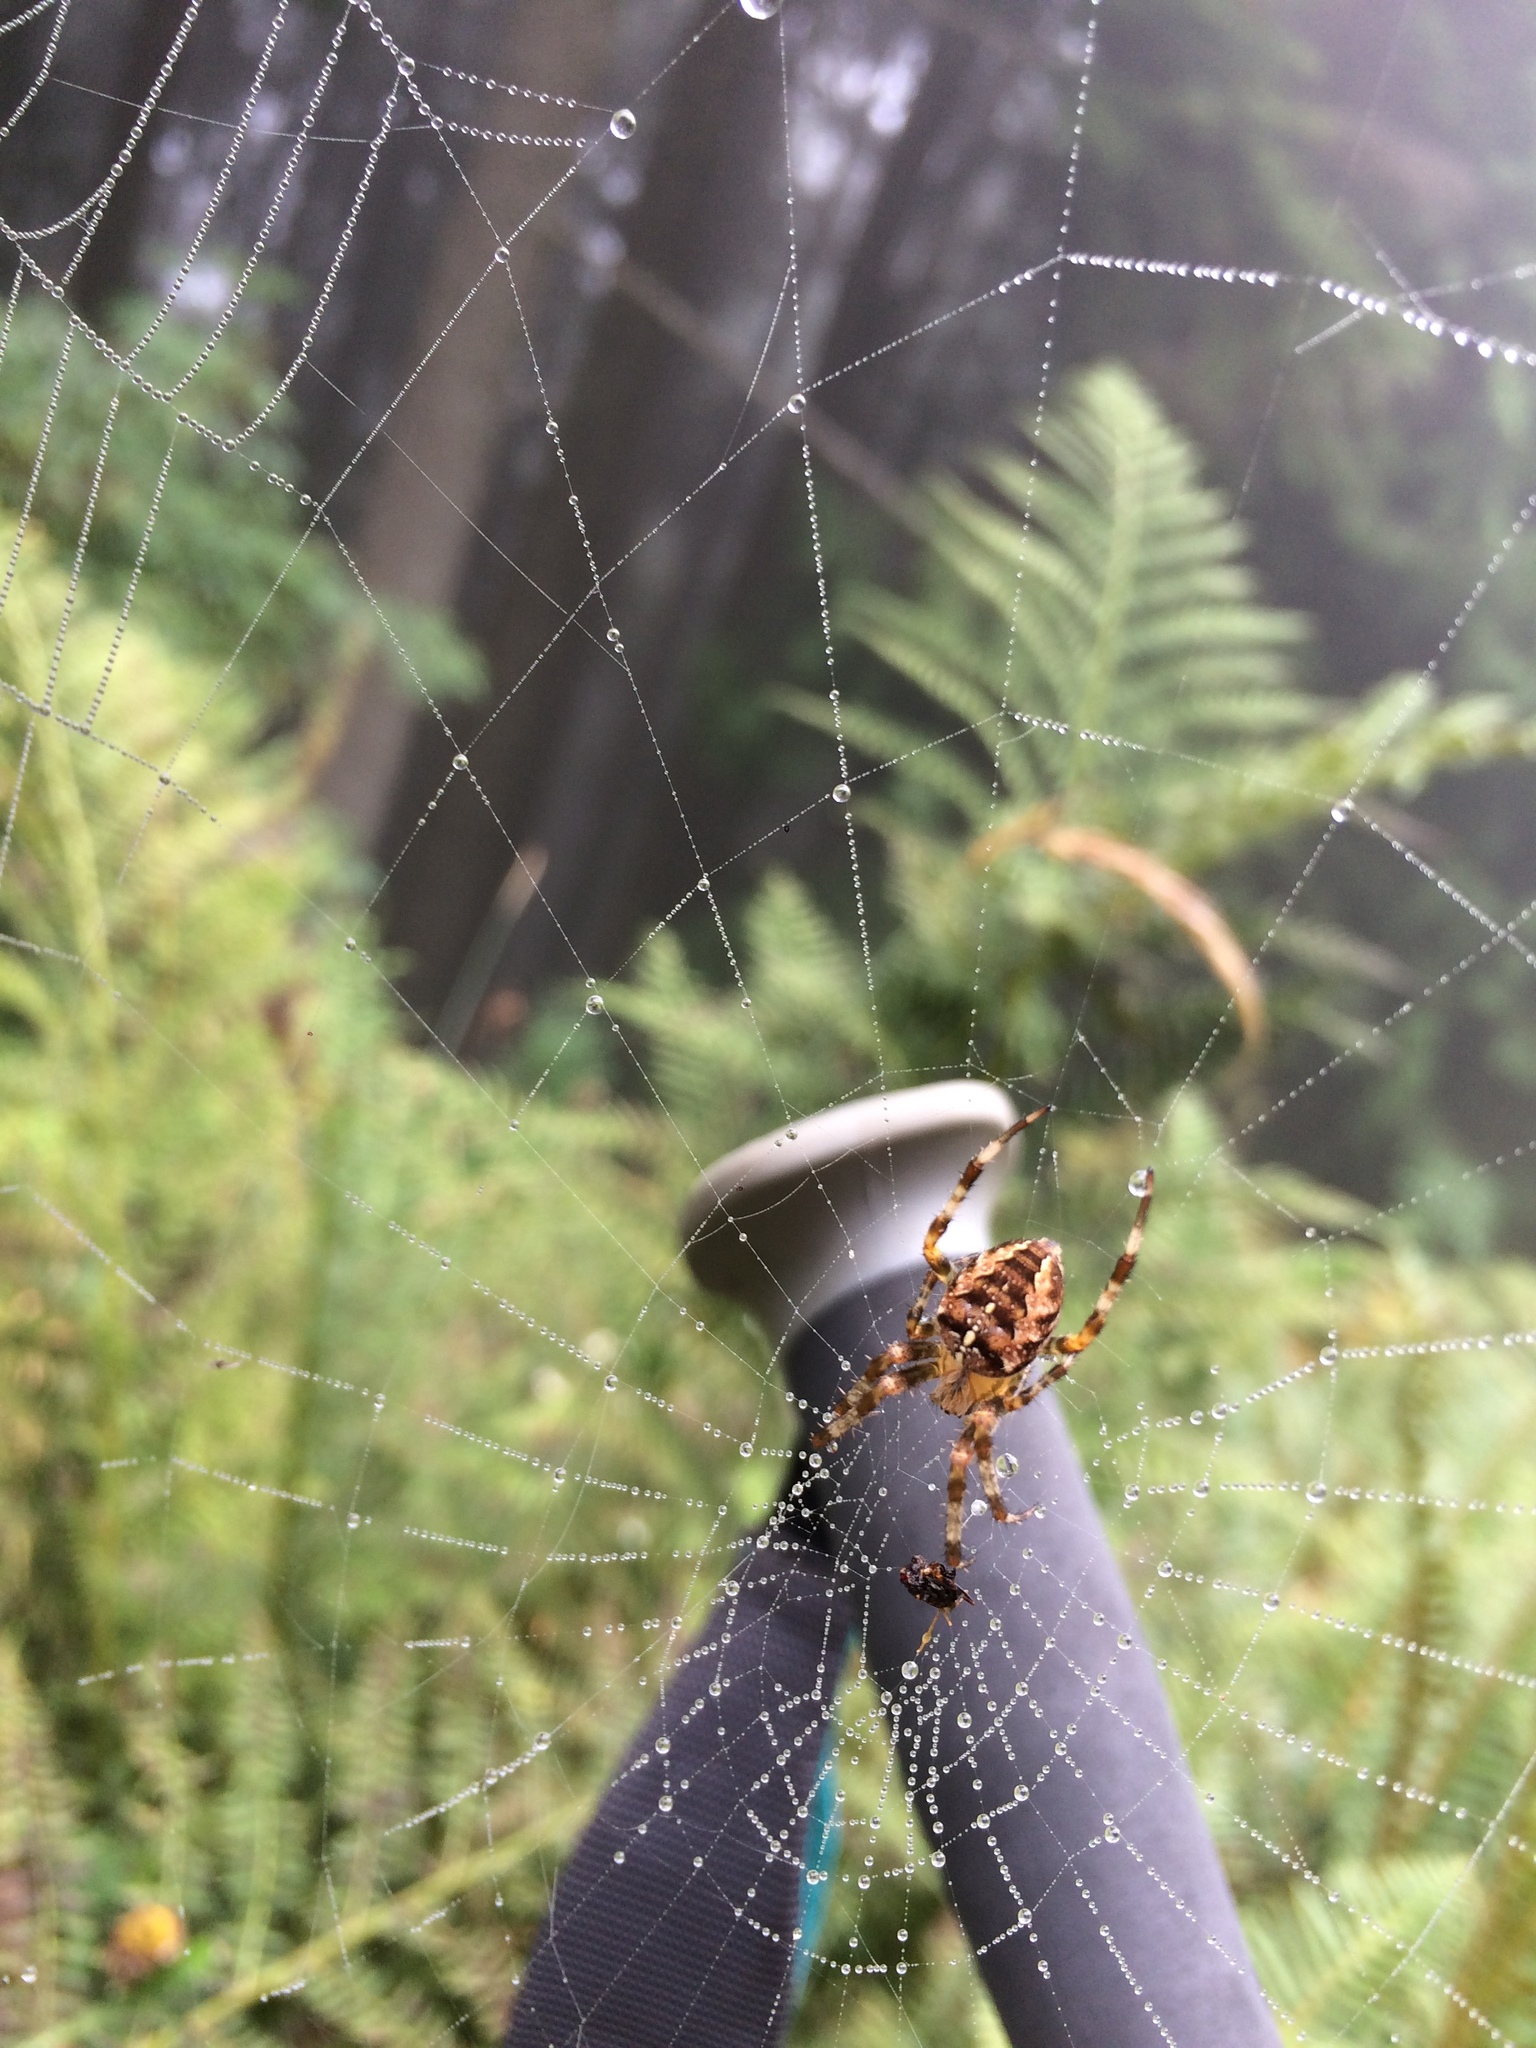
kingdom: Animalia
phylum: Arthropoda
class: Arachnida
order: Araneae
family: Araneidae
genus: Araneus
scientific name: Araneus diadematus
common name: Cross orbweaver
